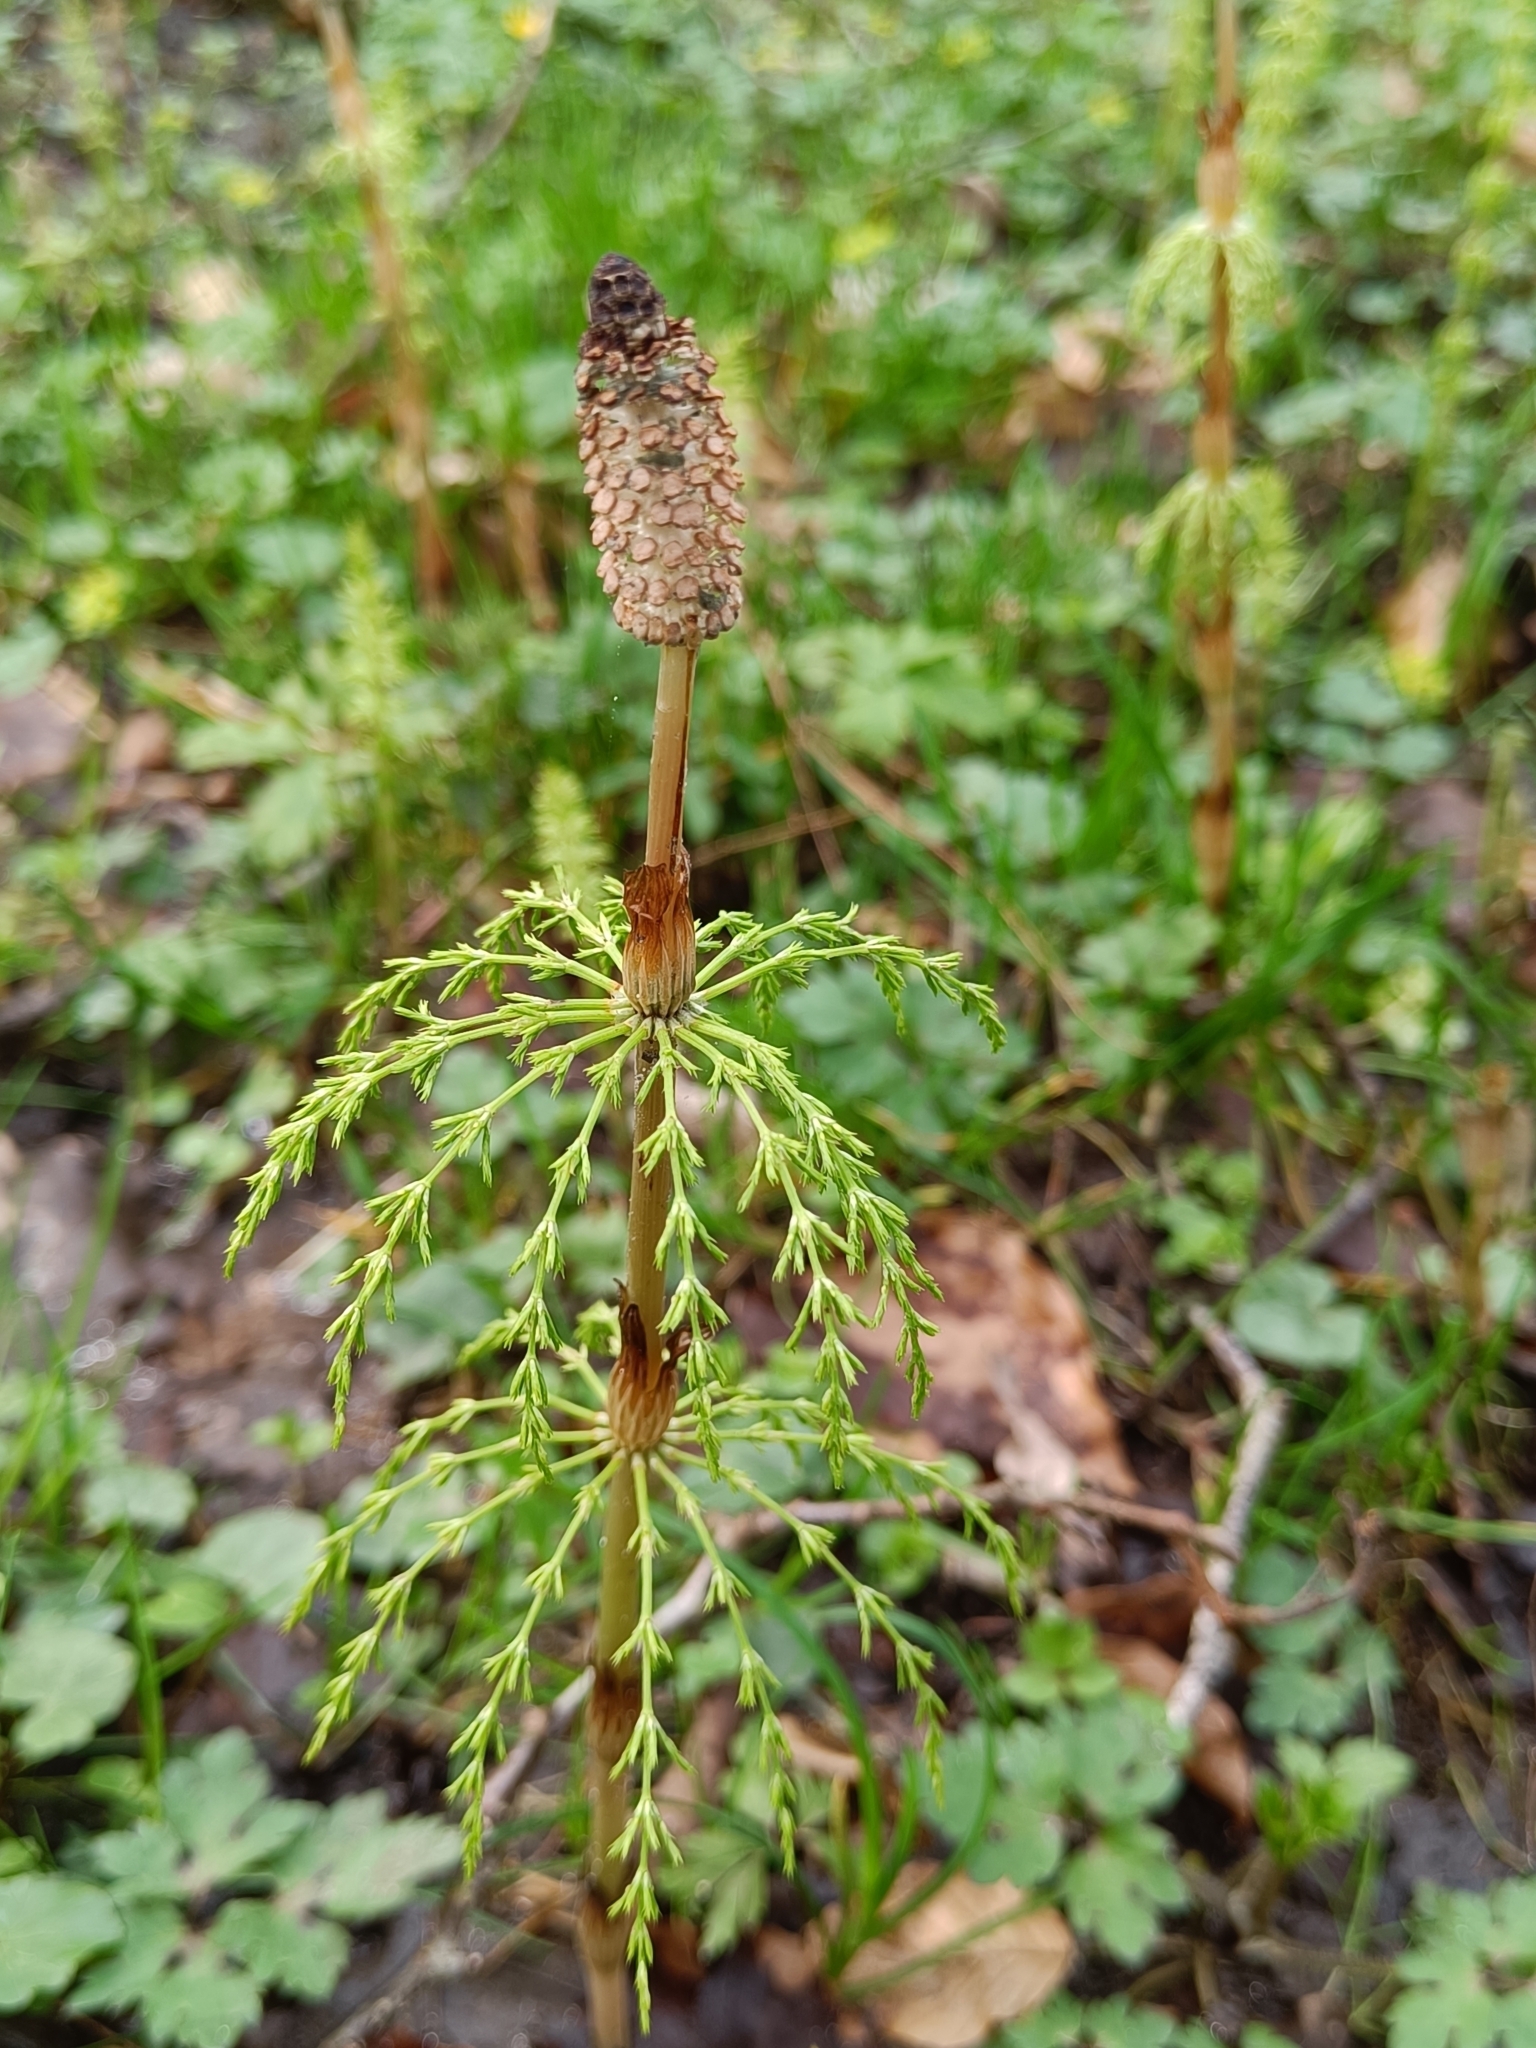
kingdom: Plantae
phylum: Tracheophyta
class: Polypodiopsida
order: Equisetales
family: Equisetaceae
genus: Equisetum
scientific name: Equisetum sylvaticum
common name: Wood horsetail
